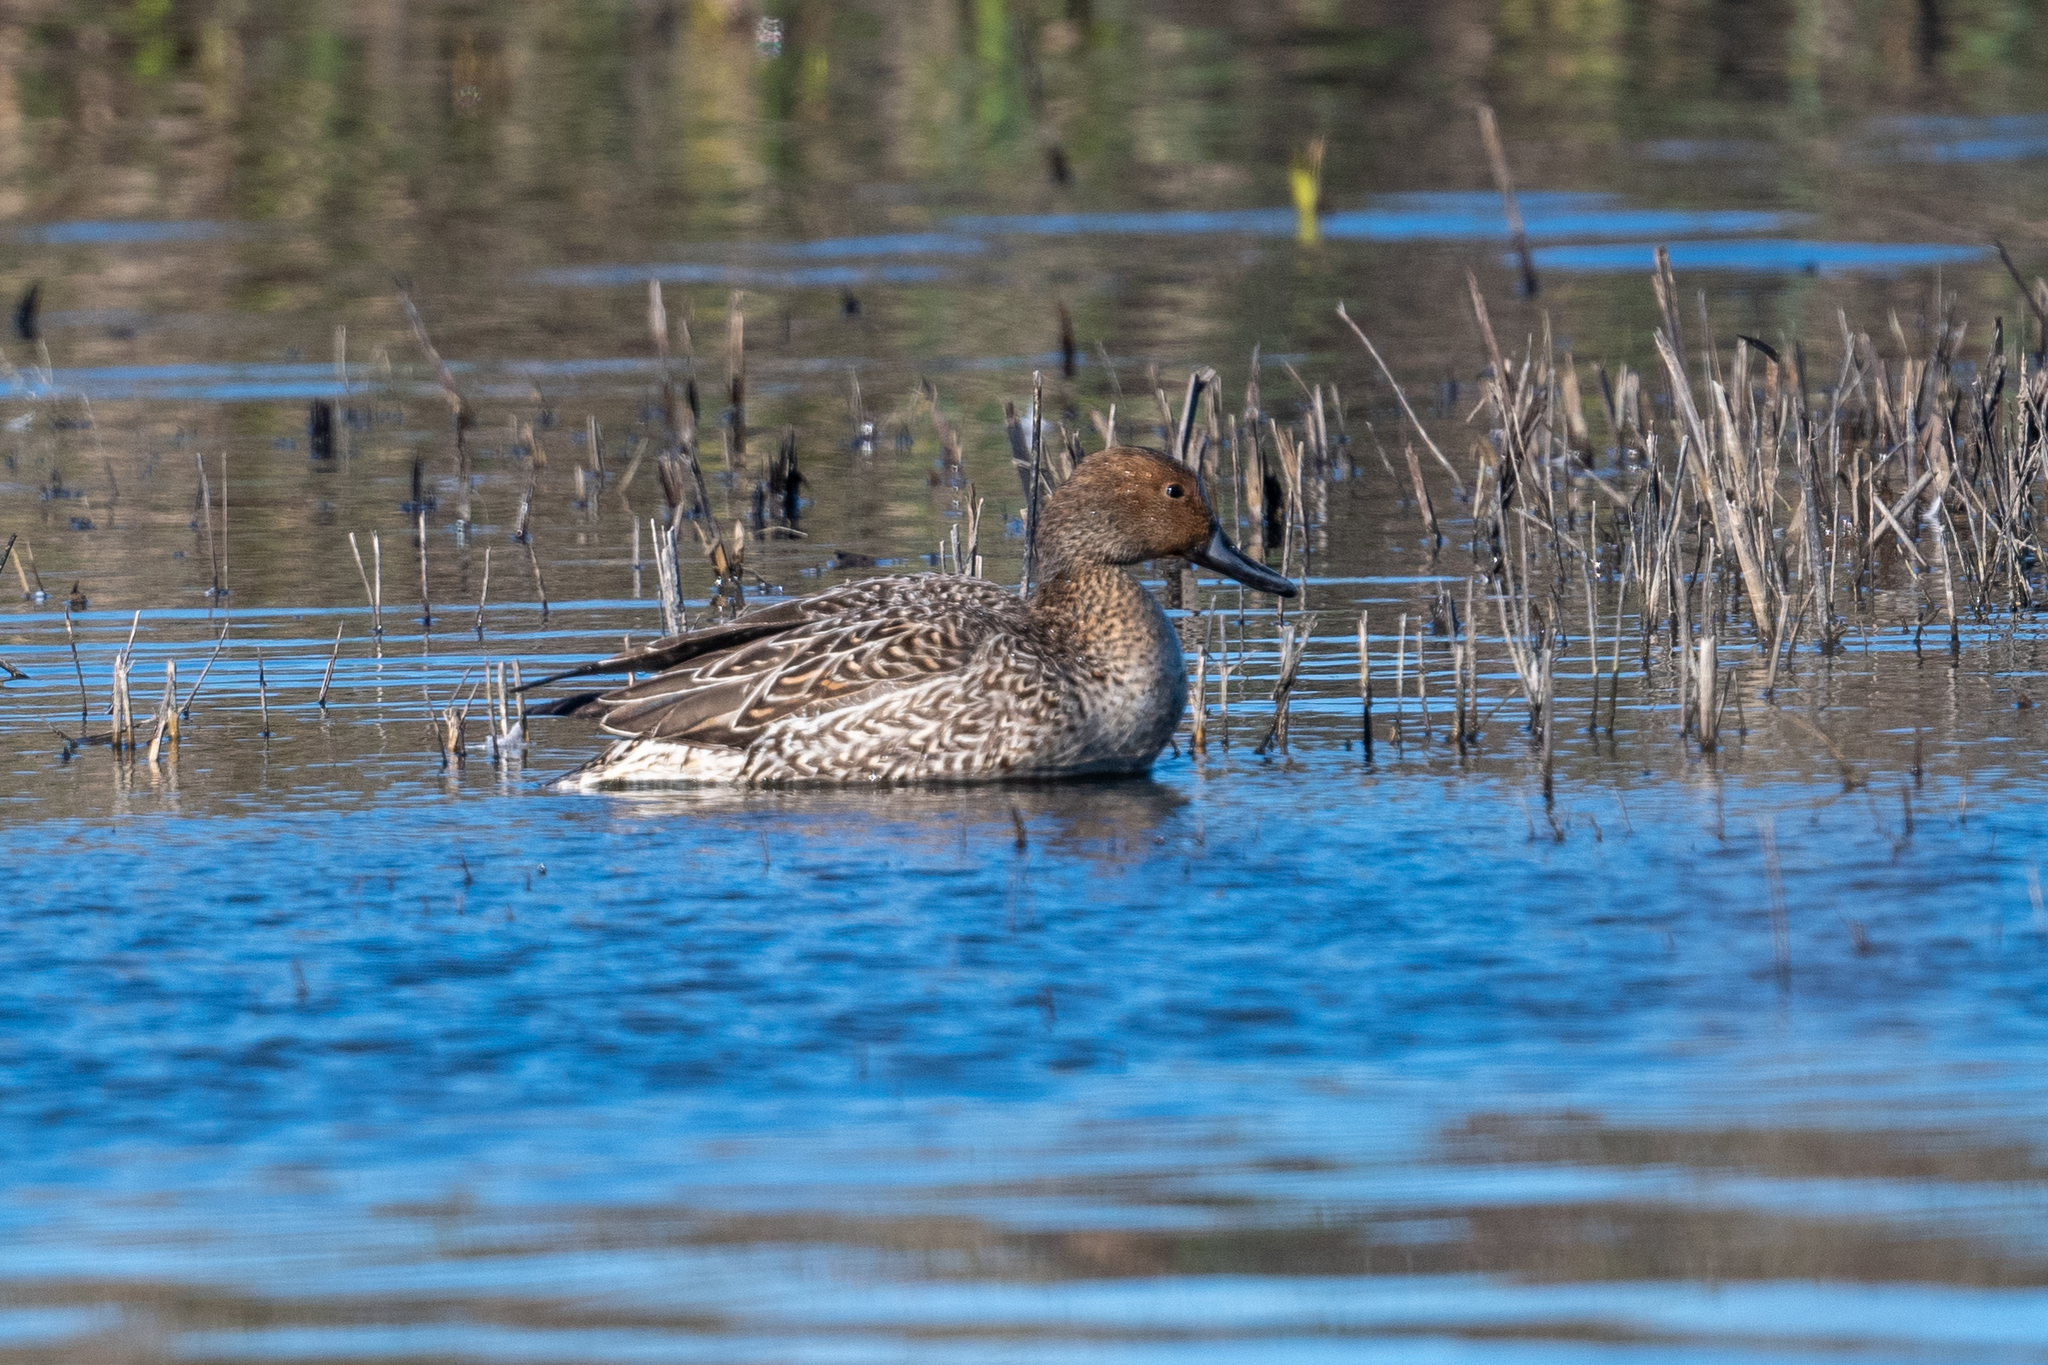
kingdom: Animalia
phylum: Chordata
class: Aves
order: Anseriformes
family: Anatidae
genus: Anas
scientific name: Anas acuta
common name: Northern pintail
